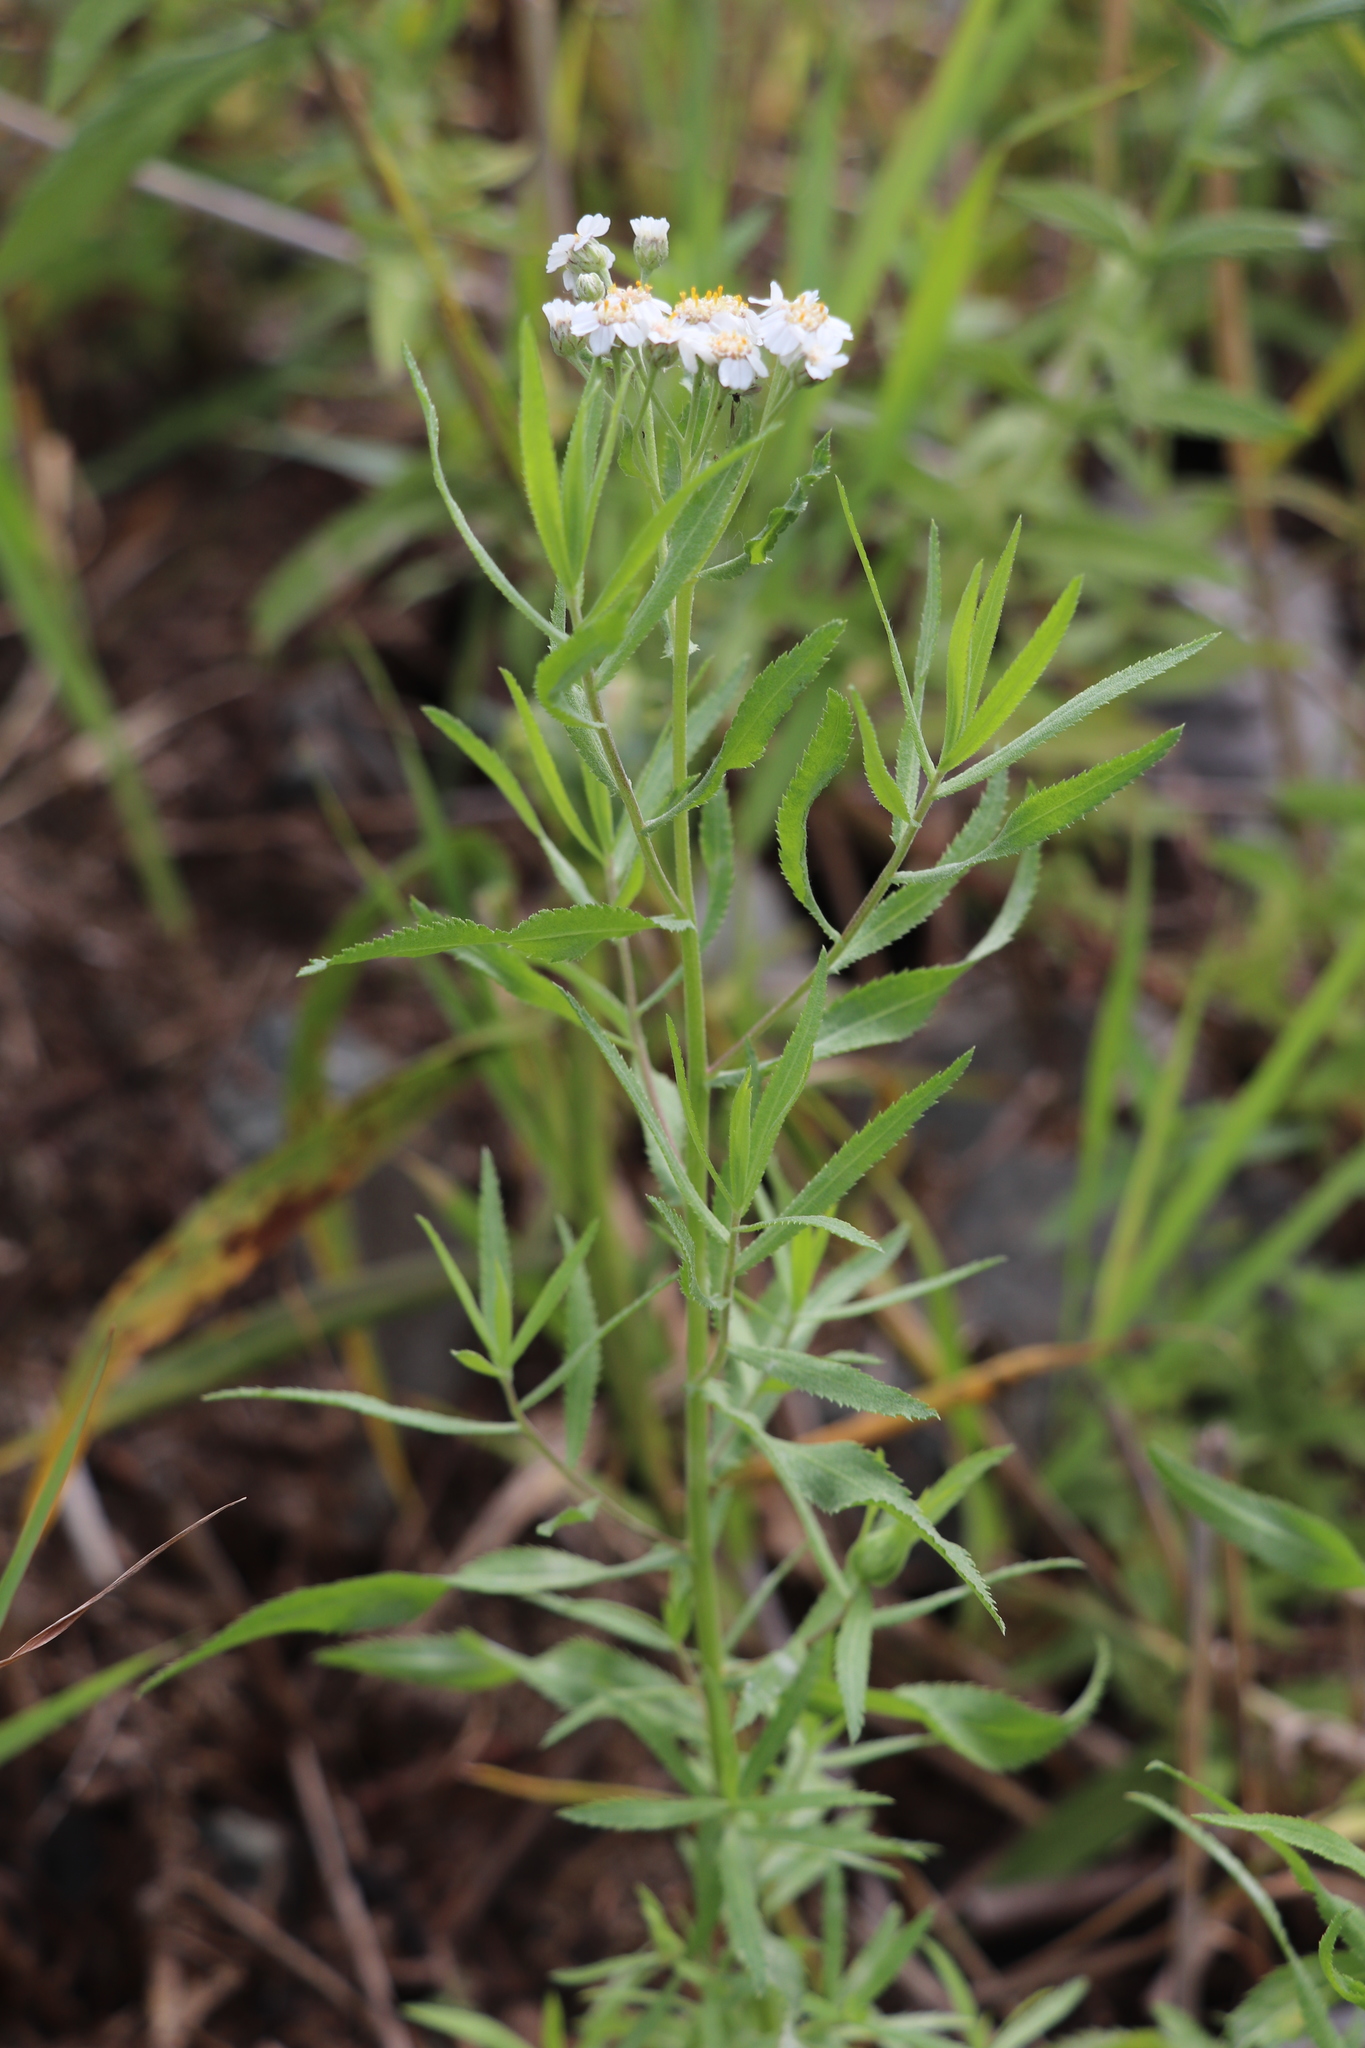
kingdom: Plantae
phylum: Tracheophyta
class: Magnoliopsida
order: Asterales
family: Asteraceae
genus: Achillea
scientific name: Achillea salicifolia
